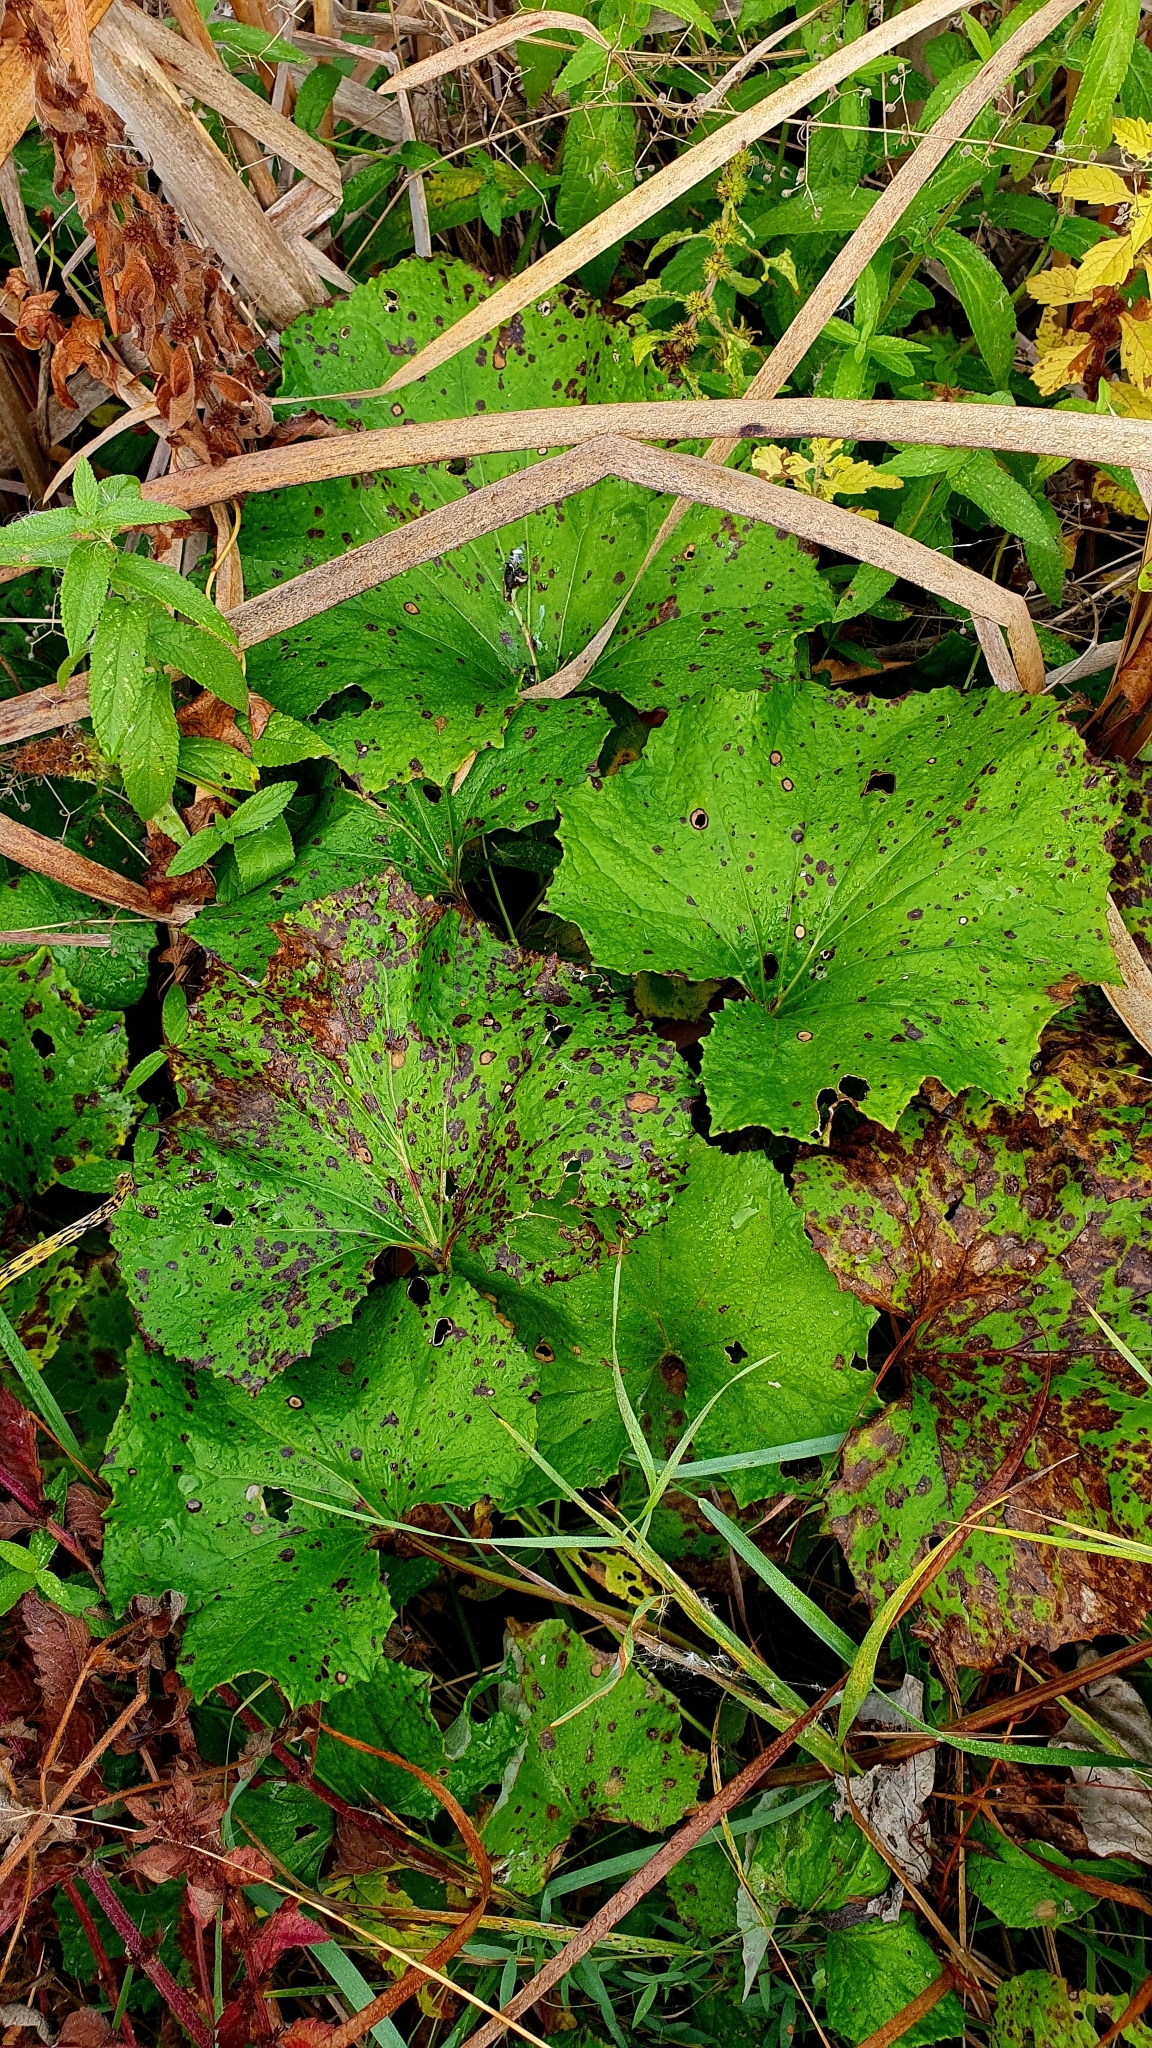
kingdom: Plantae
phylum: Tracheophyta
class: Magnoliopsida
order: Asterales
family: Asteraceae
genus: Tussilago
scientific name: Tussilago farfara
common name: Coltsfoot
